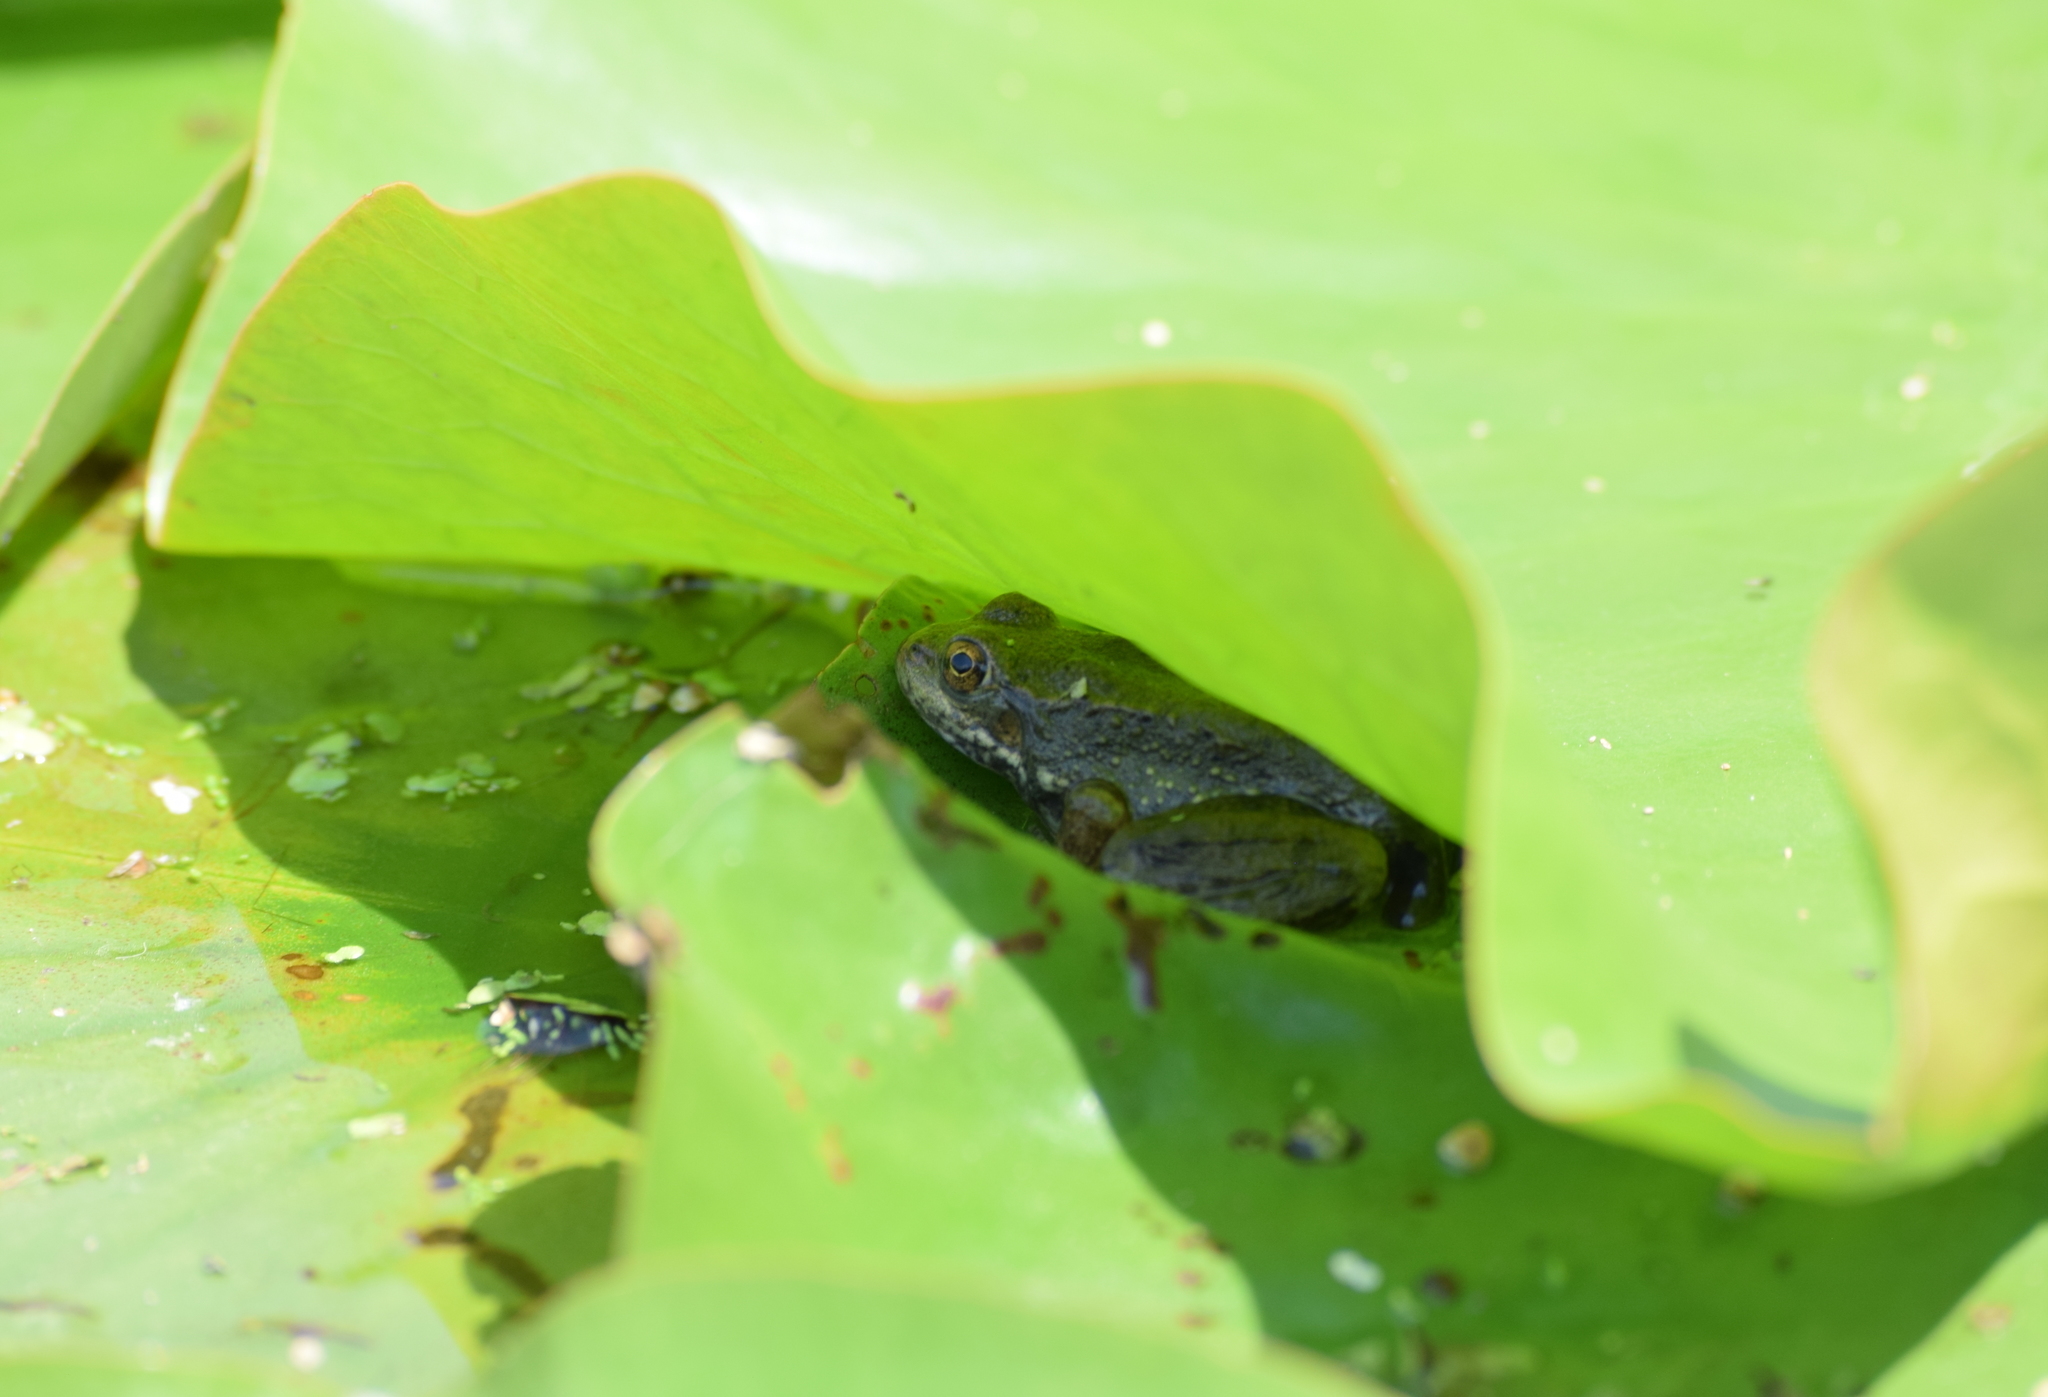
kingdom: Animalia
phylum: Chordata
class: Amphibia
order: Anura
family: Ranidae
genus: Lithobates
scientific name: Lithobates clamitans
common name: Green frog
